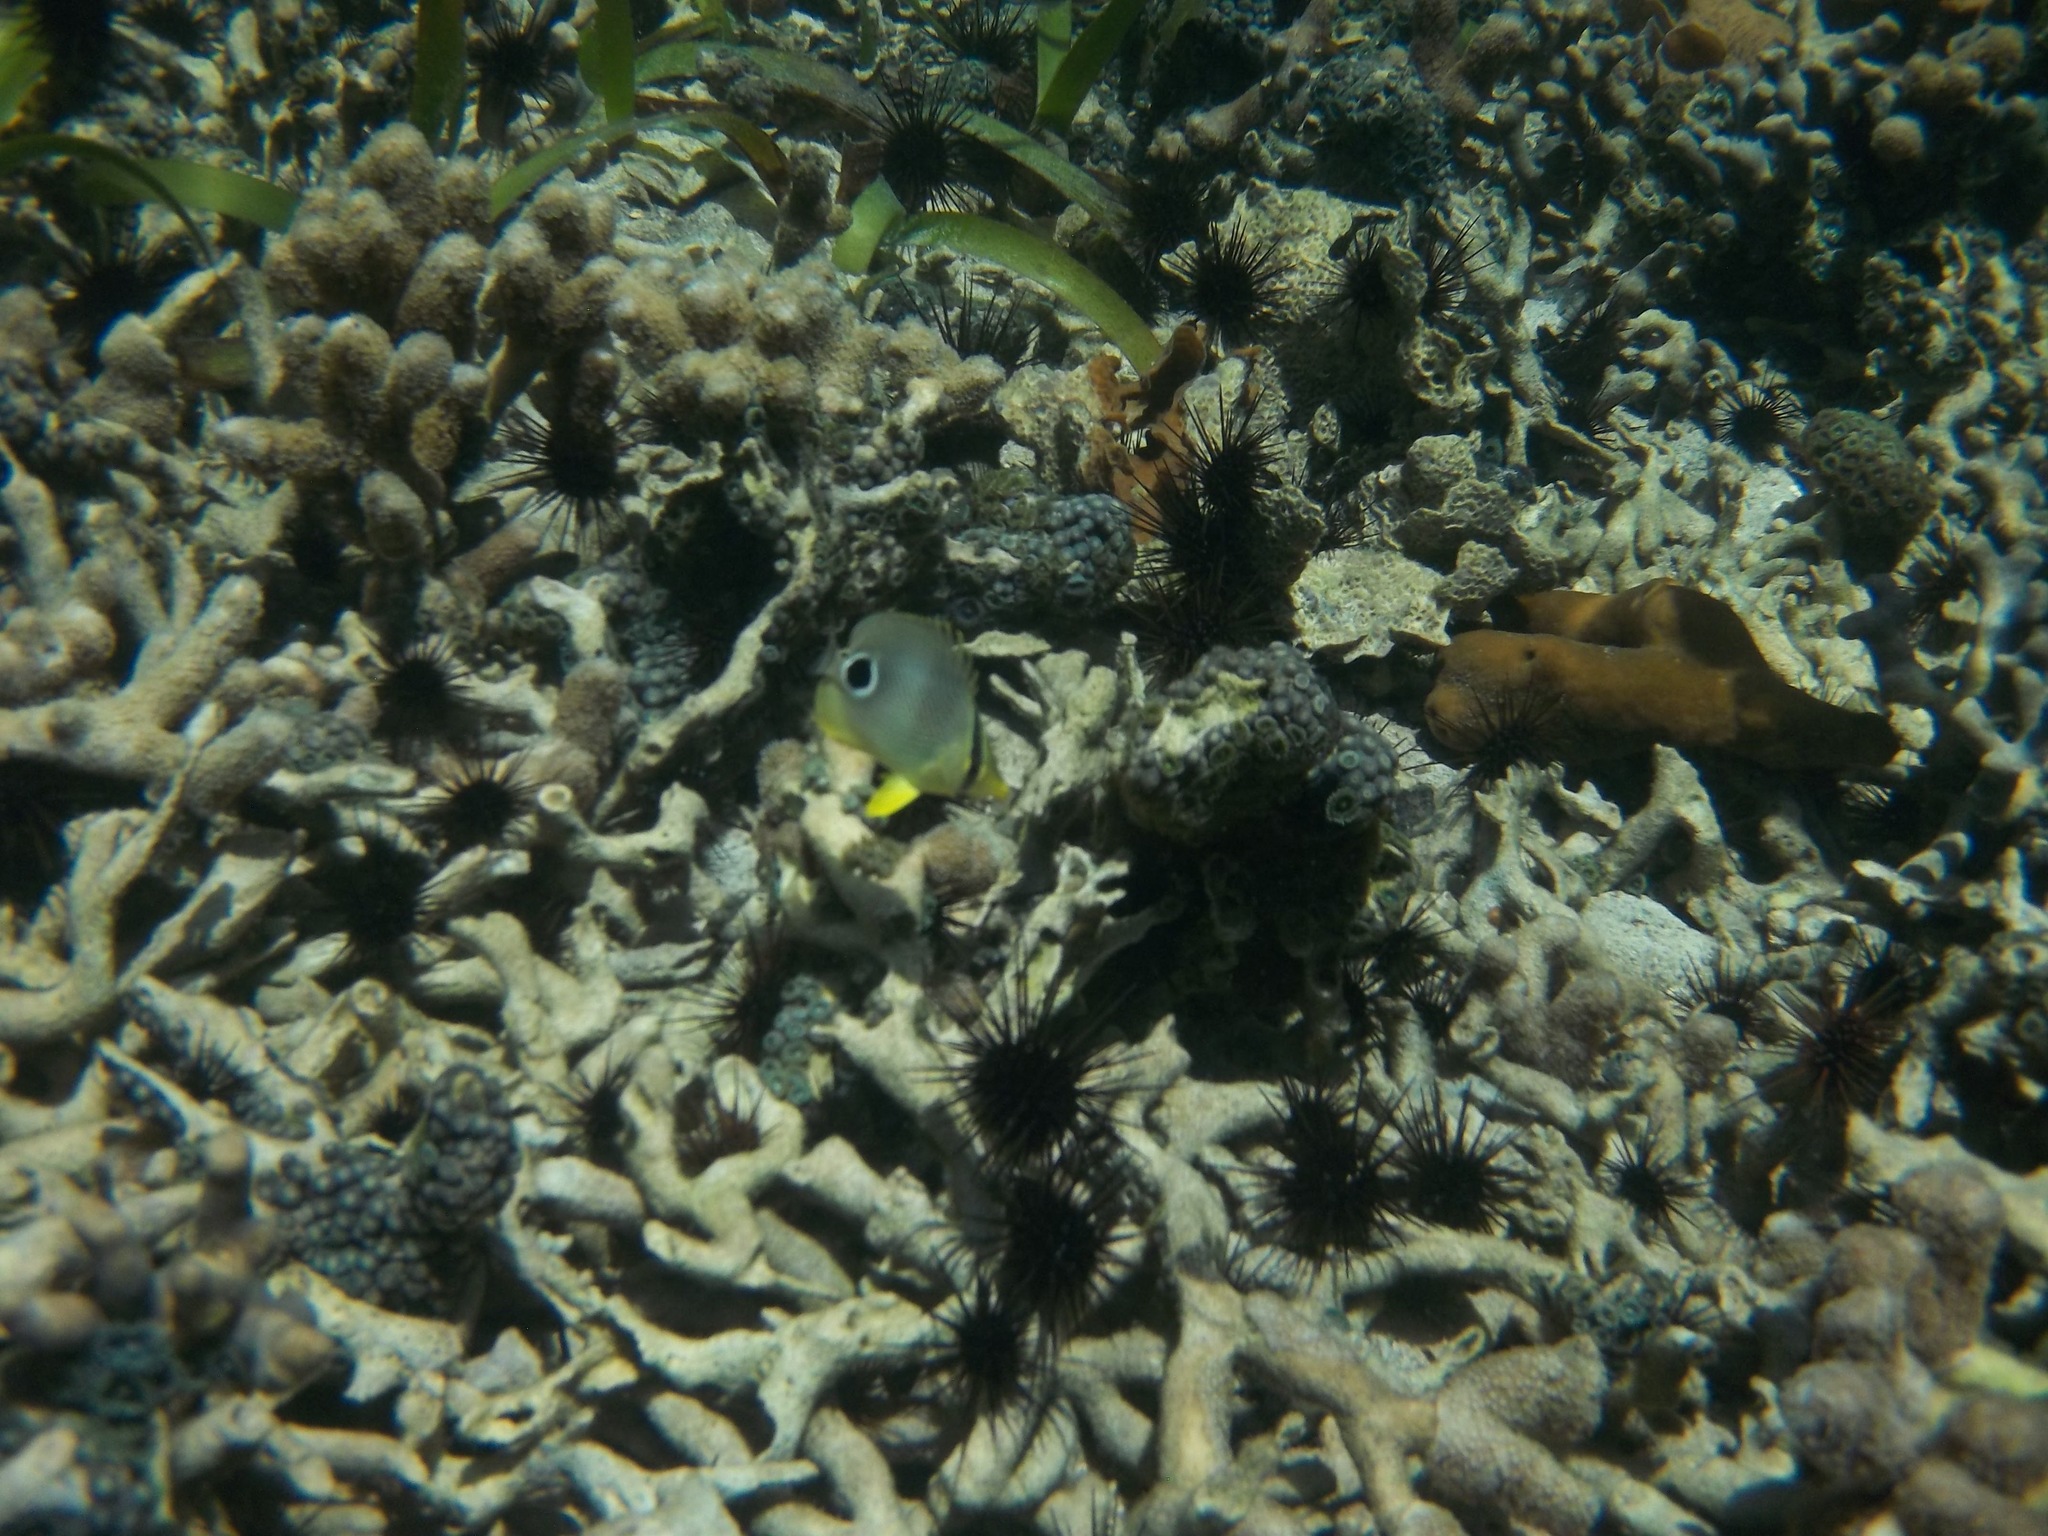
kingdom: Animalia
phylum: Chordata
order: Perciformes
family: Chaetodontidae
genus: Chaetodon
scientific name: Chaetodon capistratus
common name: Kete
